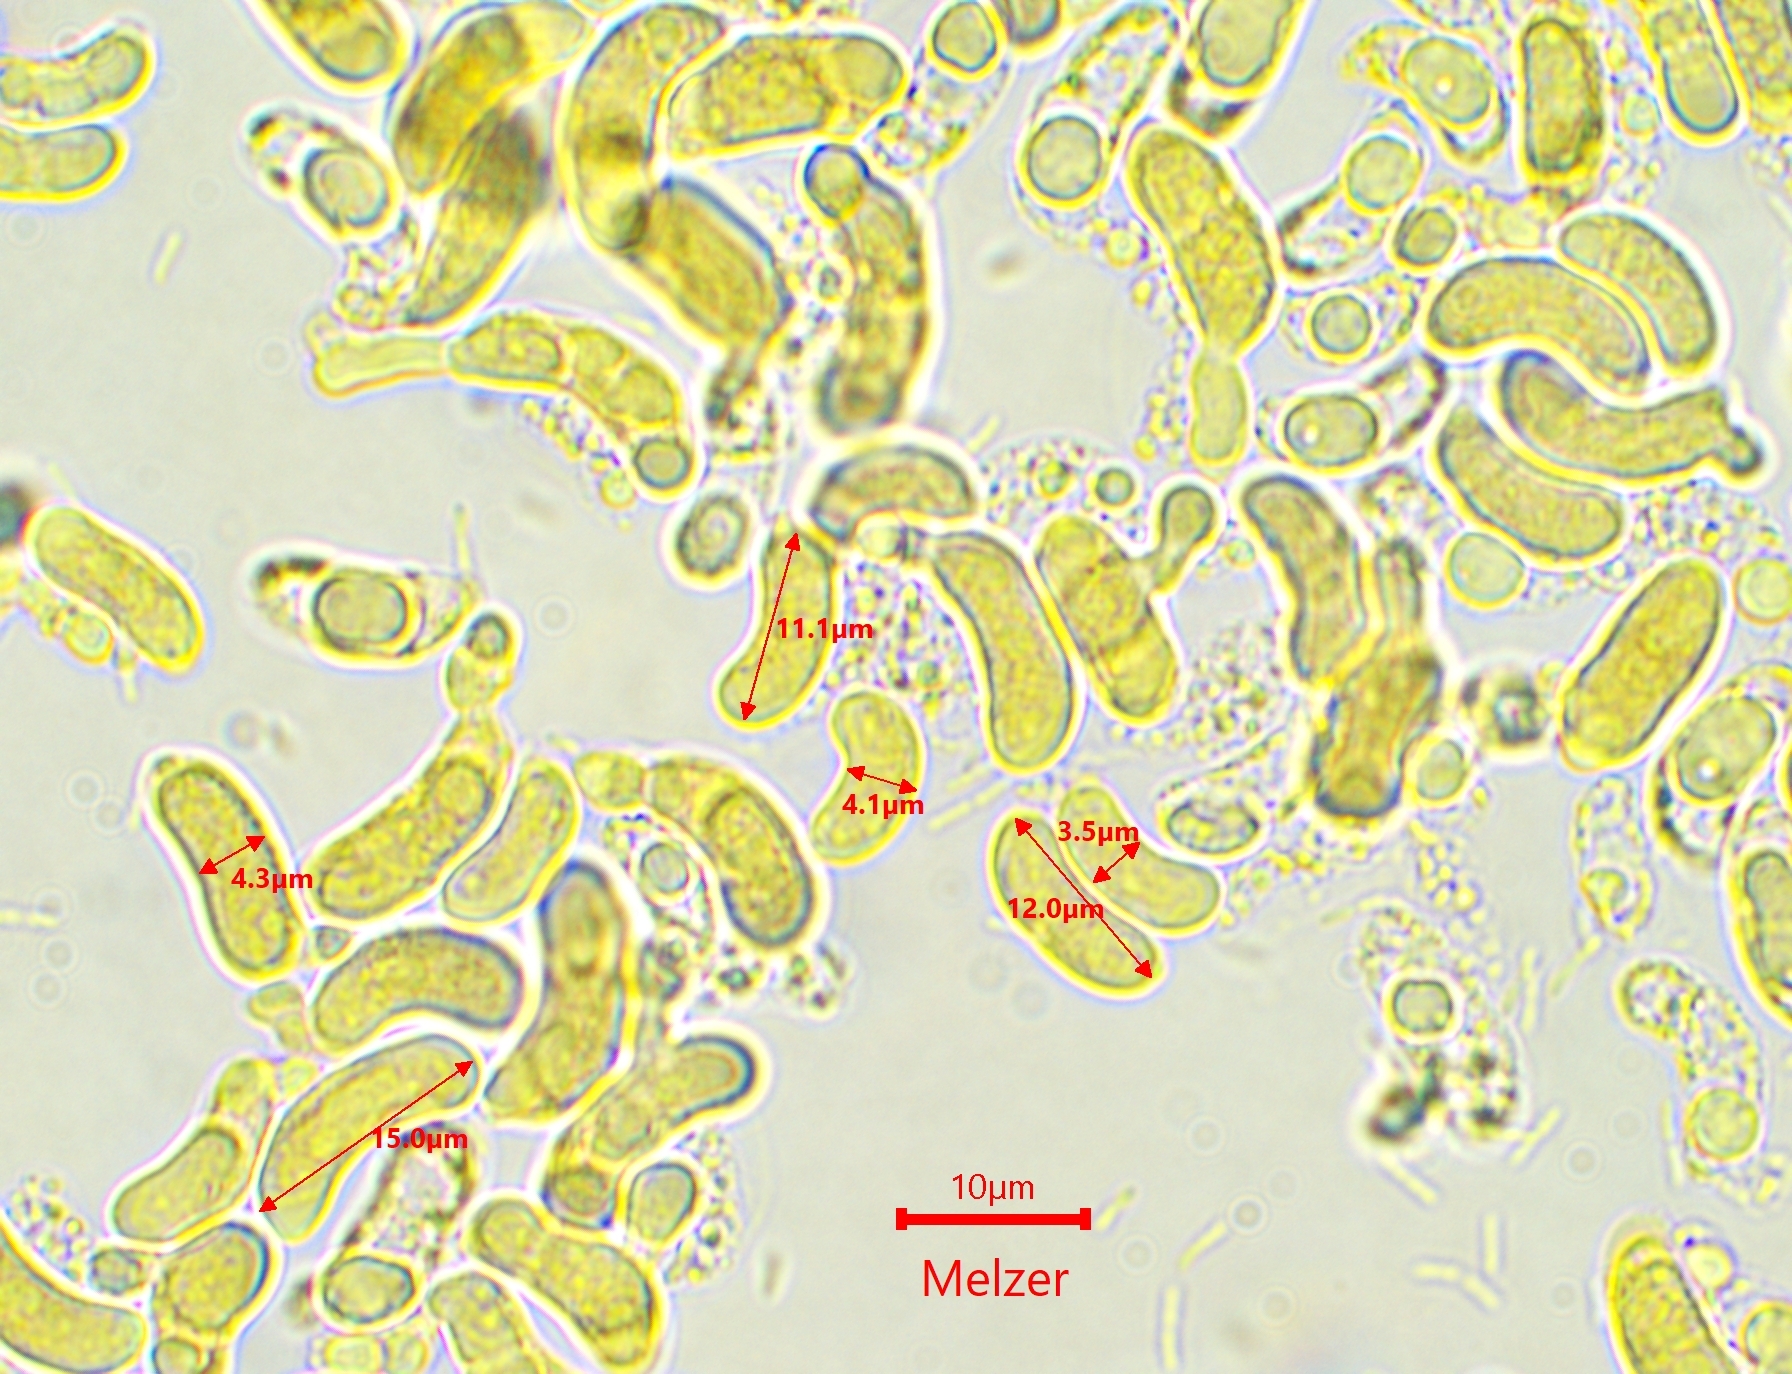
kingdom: Fungi
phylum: Basidiomycota
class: Agaricomycetes
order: Auriculariales
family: Auriculariaceae
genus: Auricularia
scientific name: Auricularia mesenterica
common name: Tripe fungus
